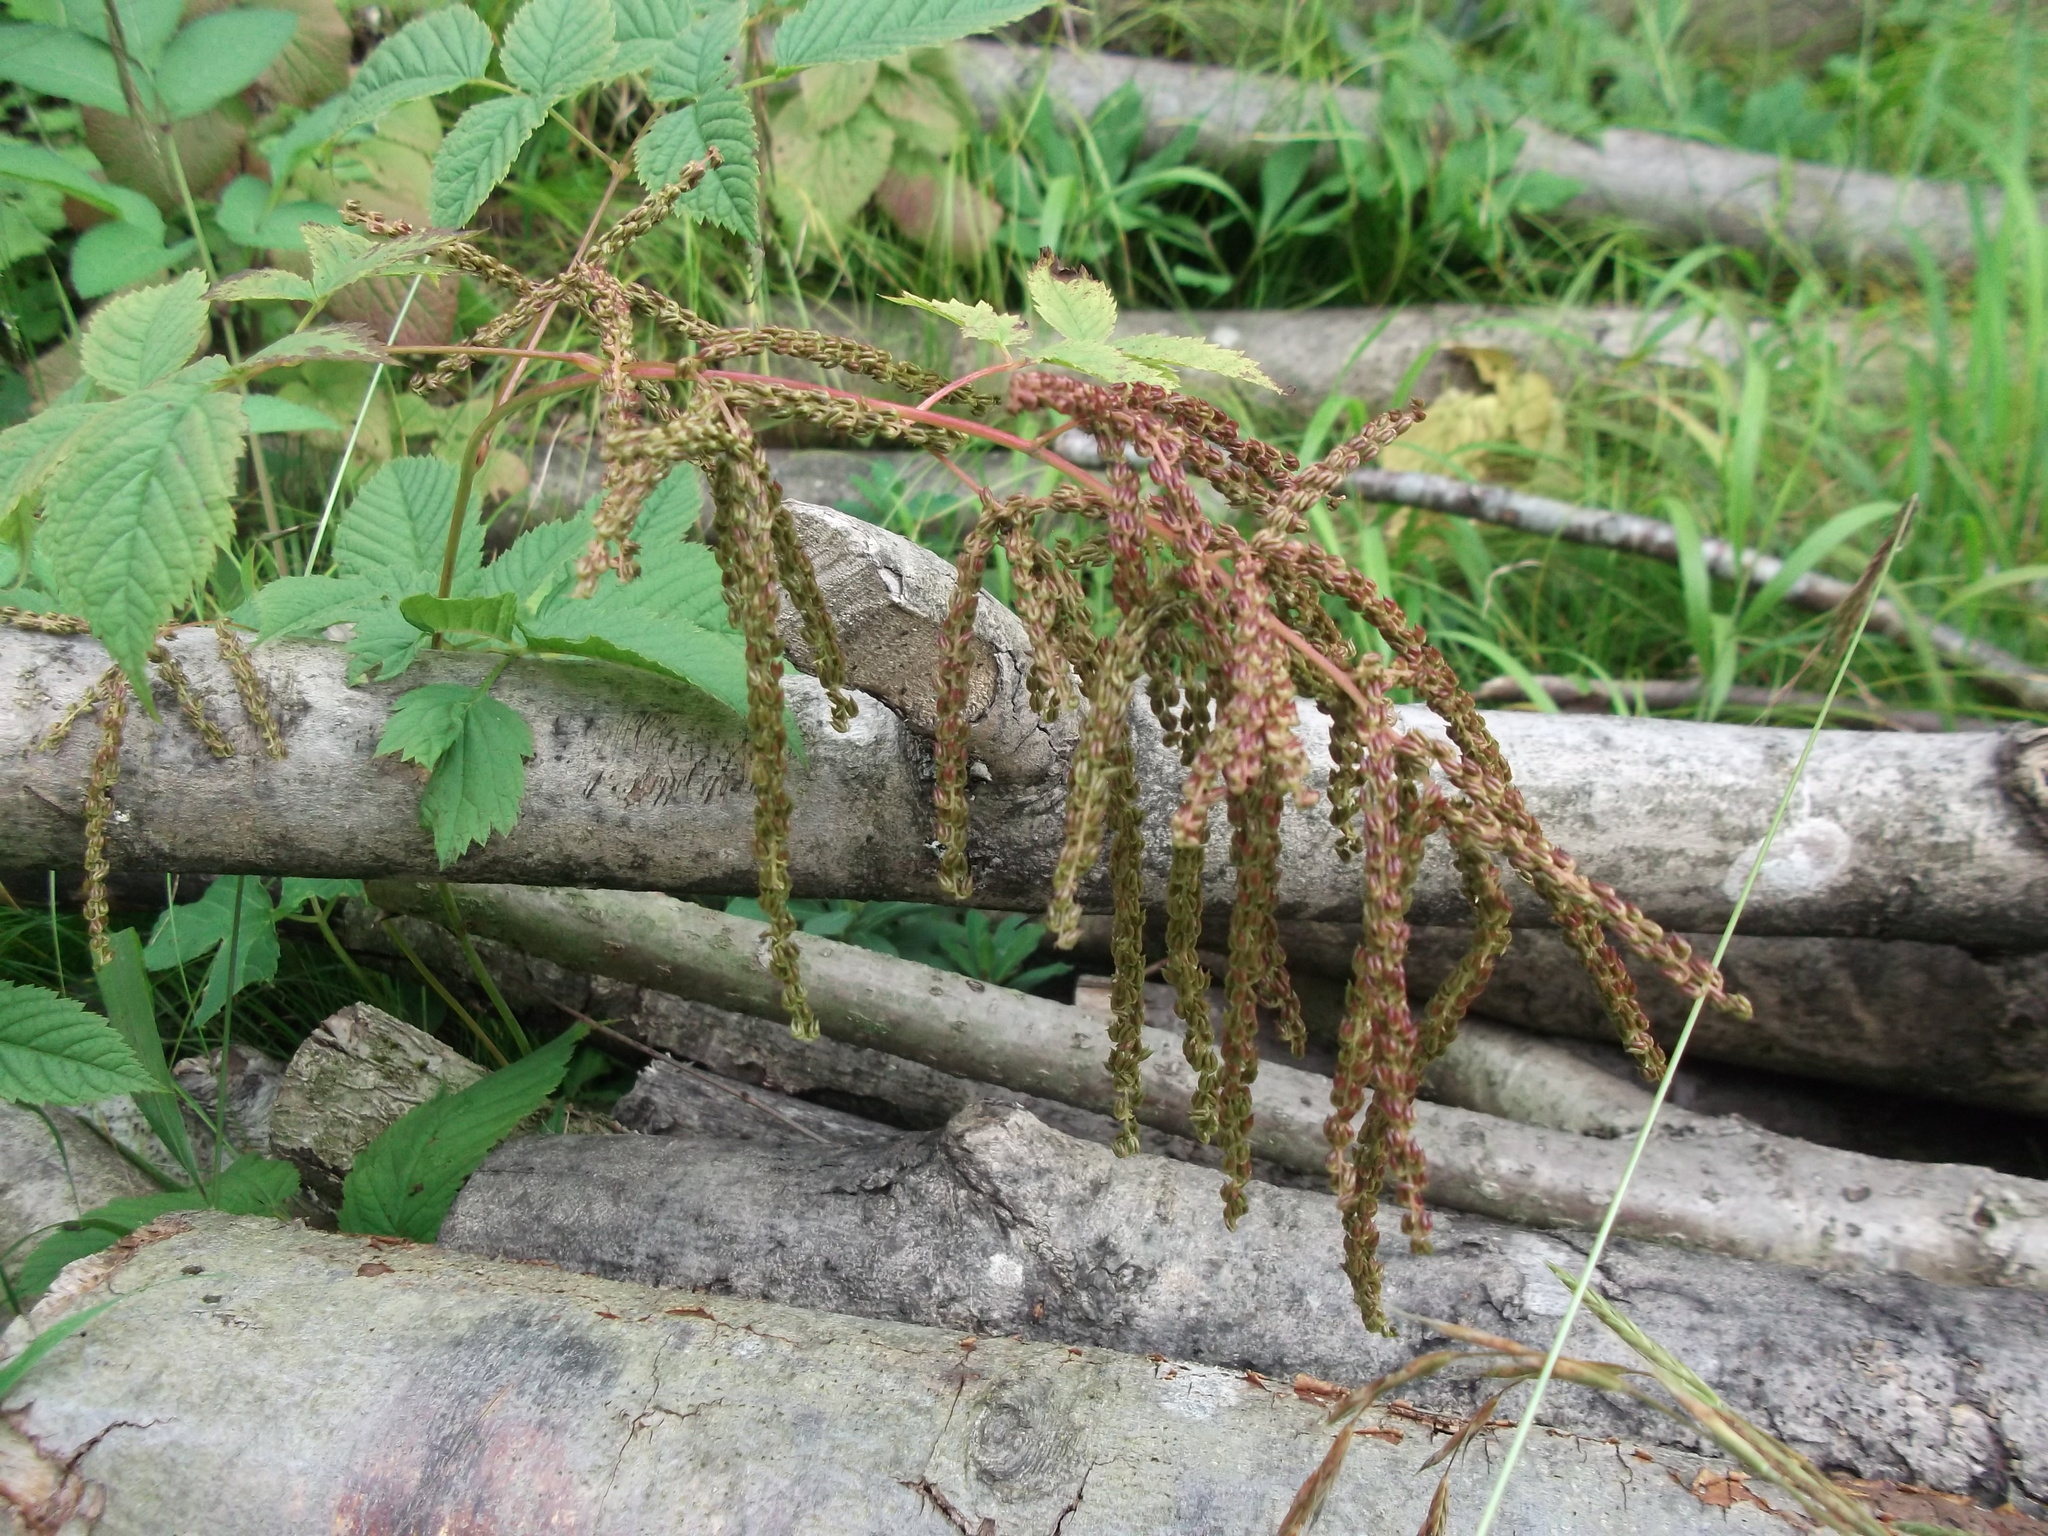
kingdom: Plantae
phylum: Tracheophyta
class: Magnoliopsida
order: Rosales
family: Rosaceae
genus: Aruncus
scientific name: Aruncus dioicus
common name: Buck's-beard
